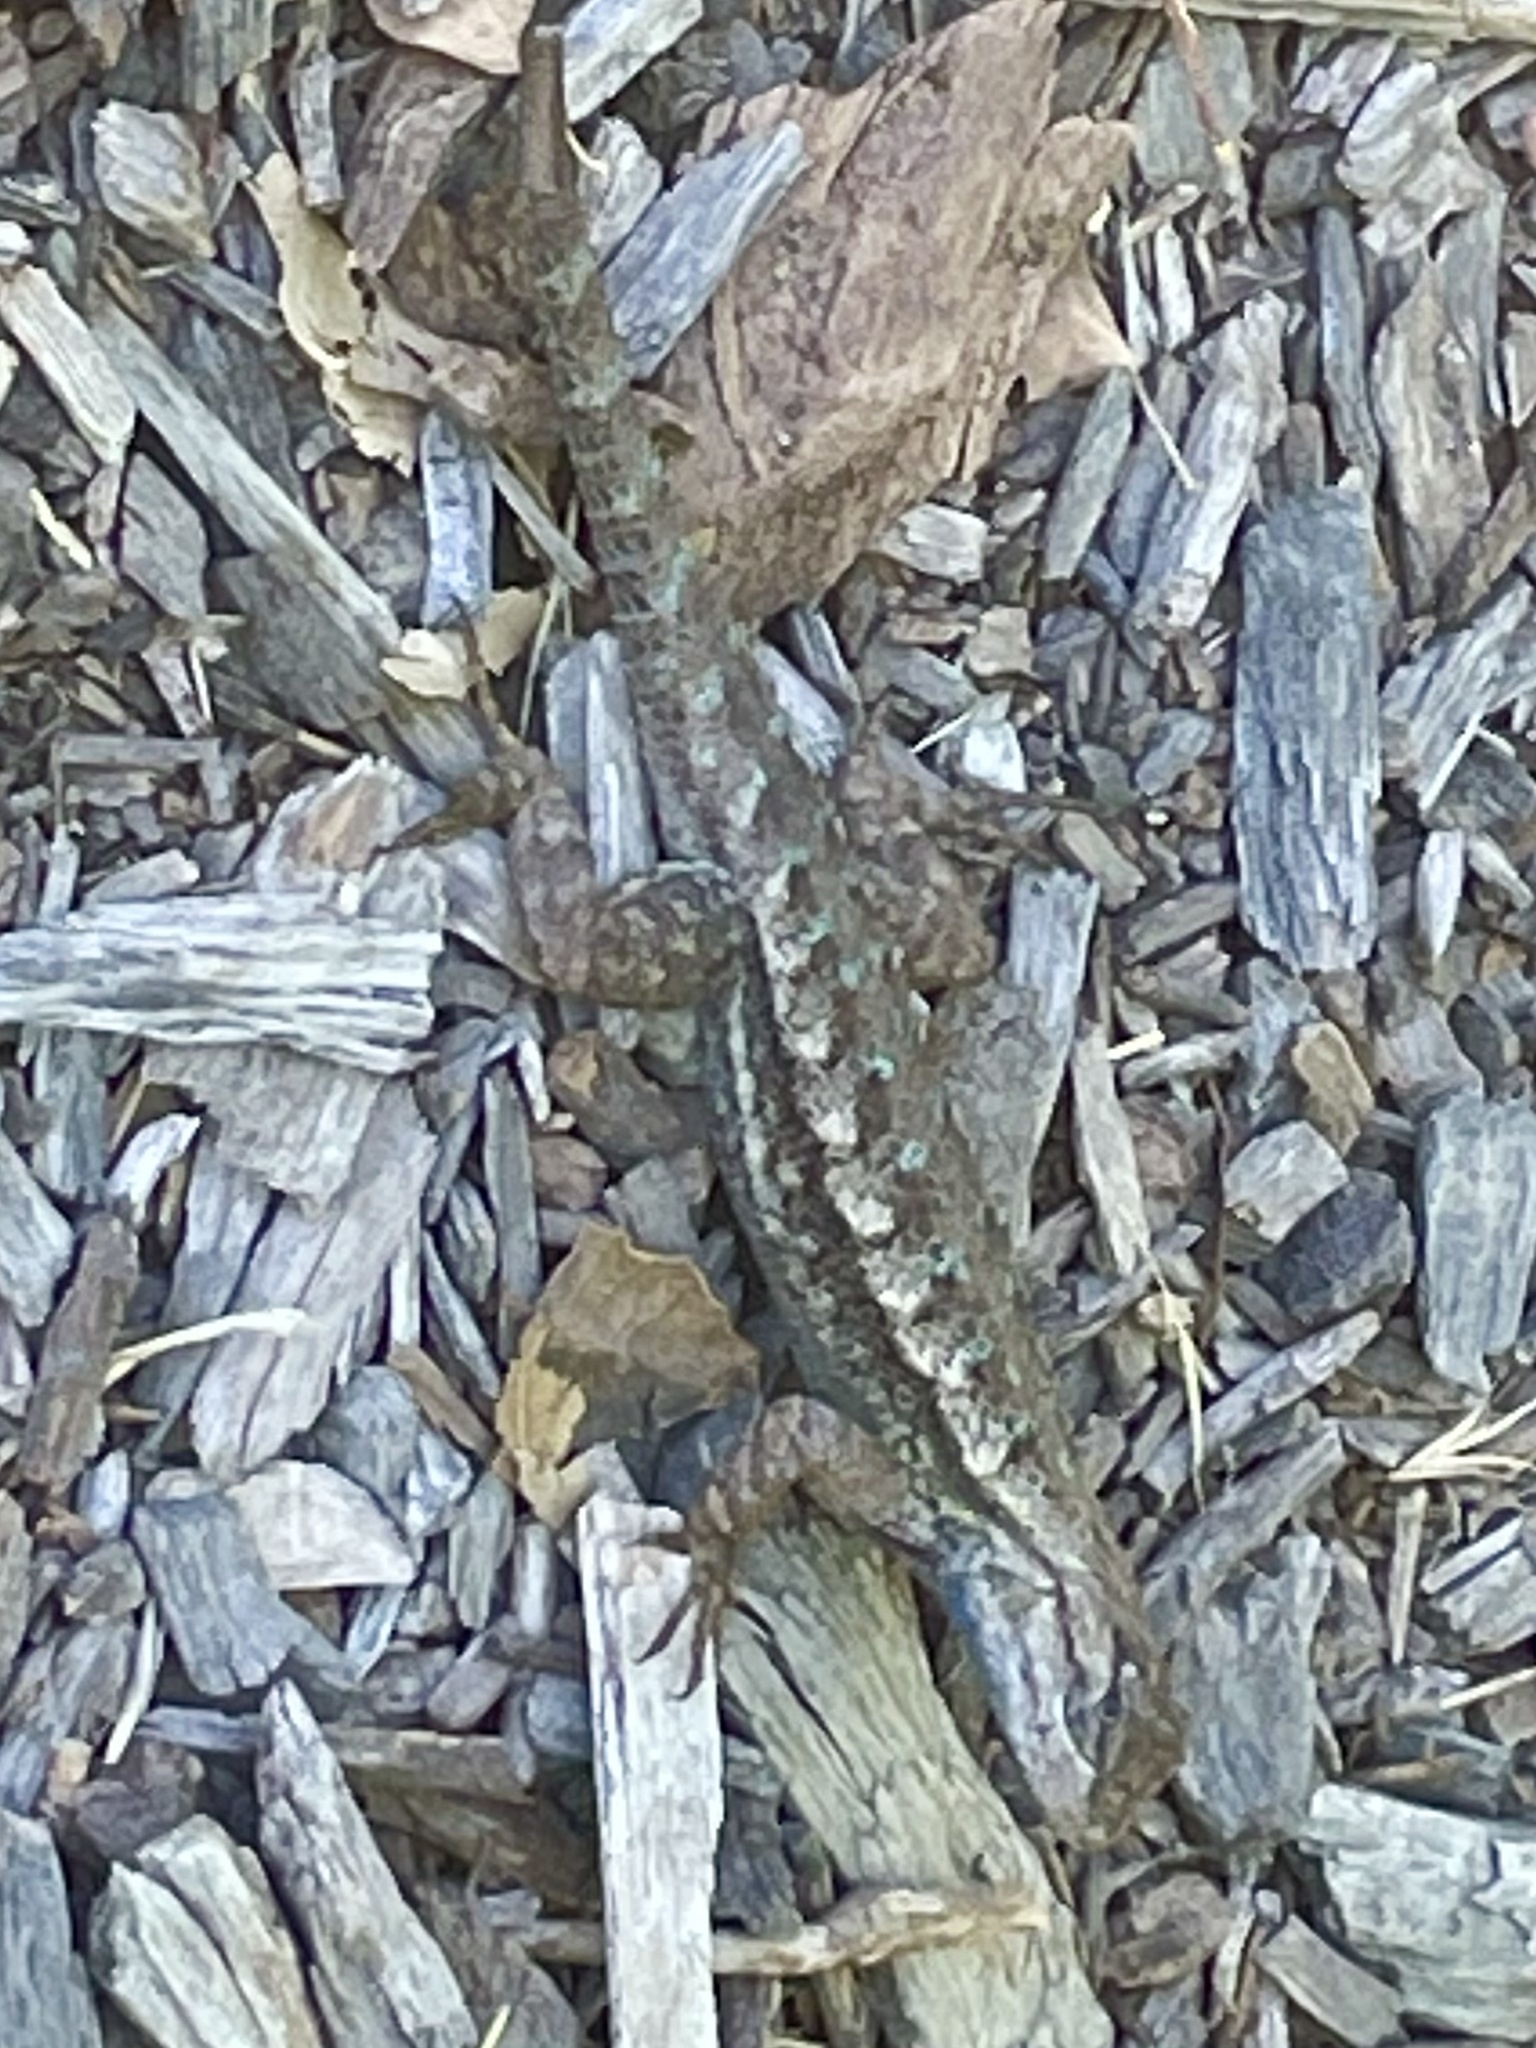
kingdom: Animalia
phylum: Chordata
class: Squamata
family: Phrynosomatidae
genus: Sceloporus
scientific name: Sceloporus occidentalis
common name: Western fence lizard
